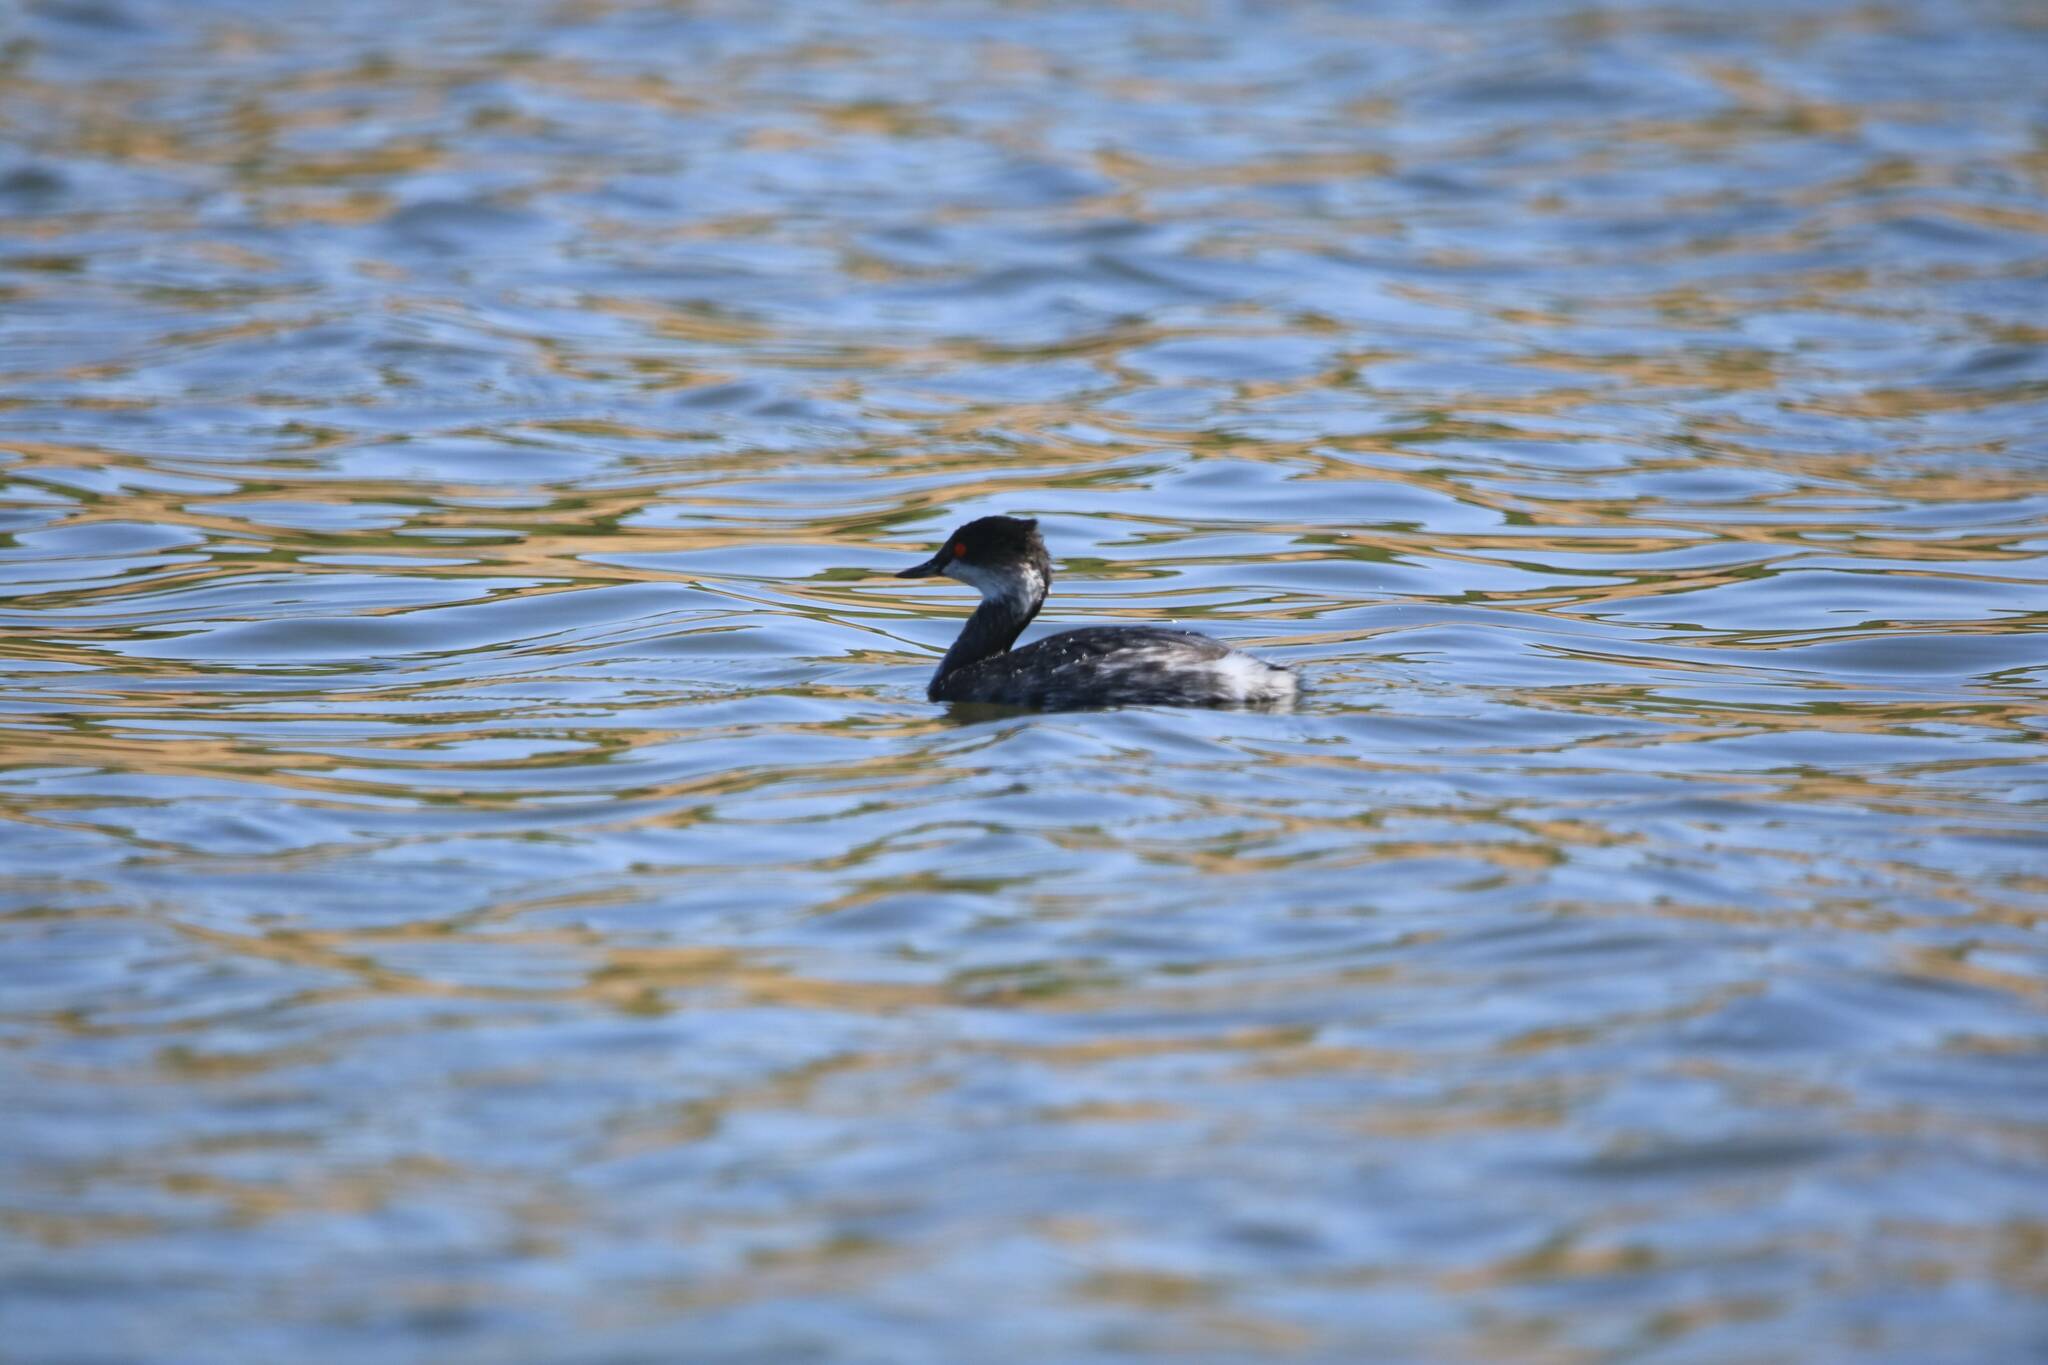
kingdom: Animalia
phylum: Chordata
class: Aves
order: Podicipediformes
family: Podicipedidae
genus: Podiceps
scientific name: Podiceps nigricollis
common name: Black-necked grebe
